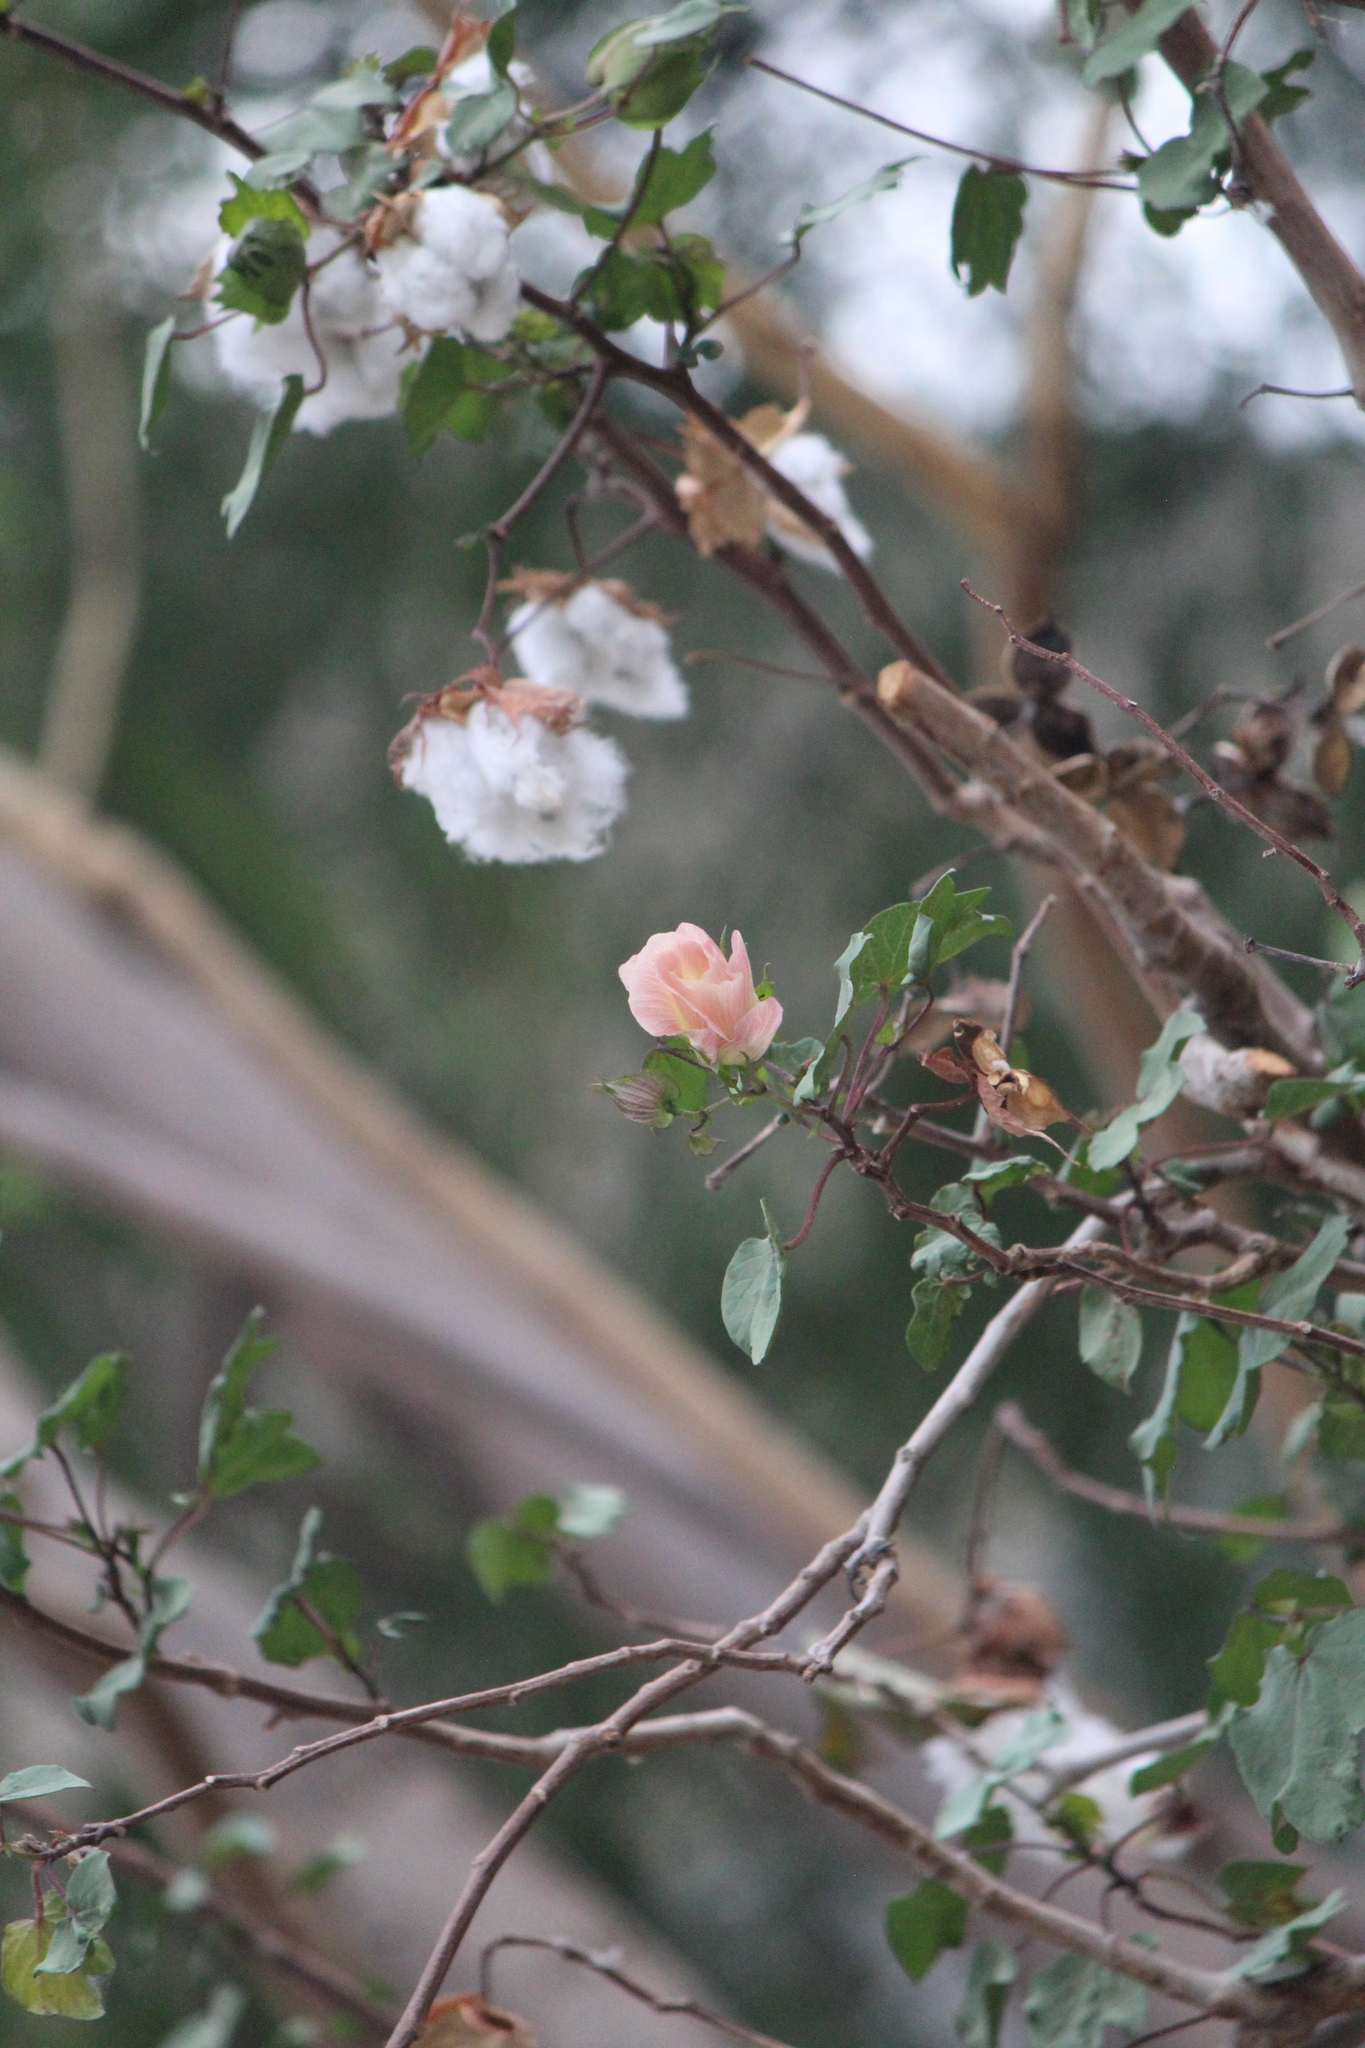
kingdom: Plantae
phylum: Tracheophyta
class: Magnoliopsida
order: Malvales
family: Malvaceae
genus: Gossypium
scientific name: Gossypium harknessii
